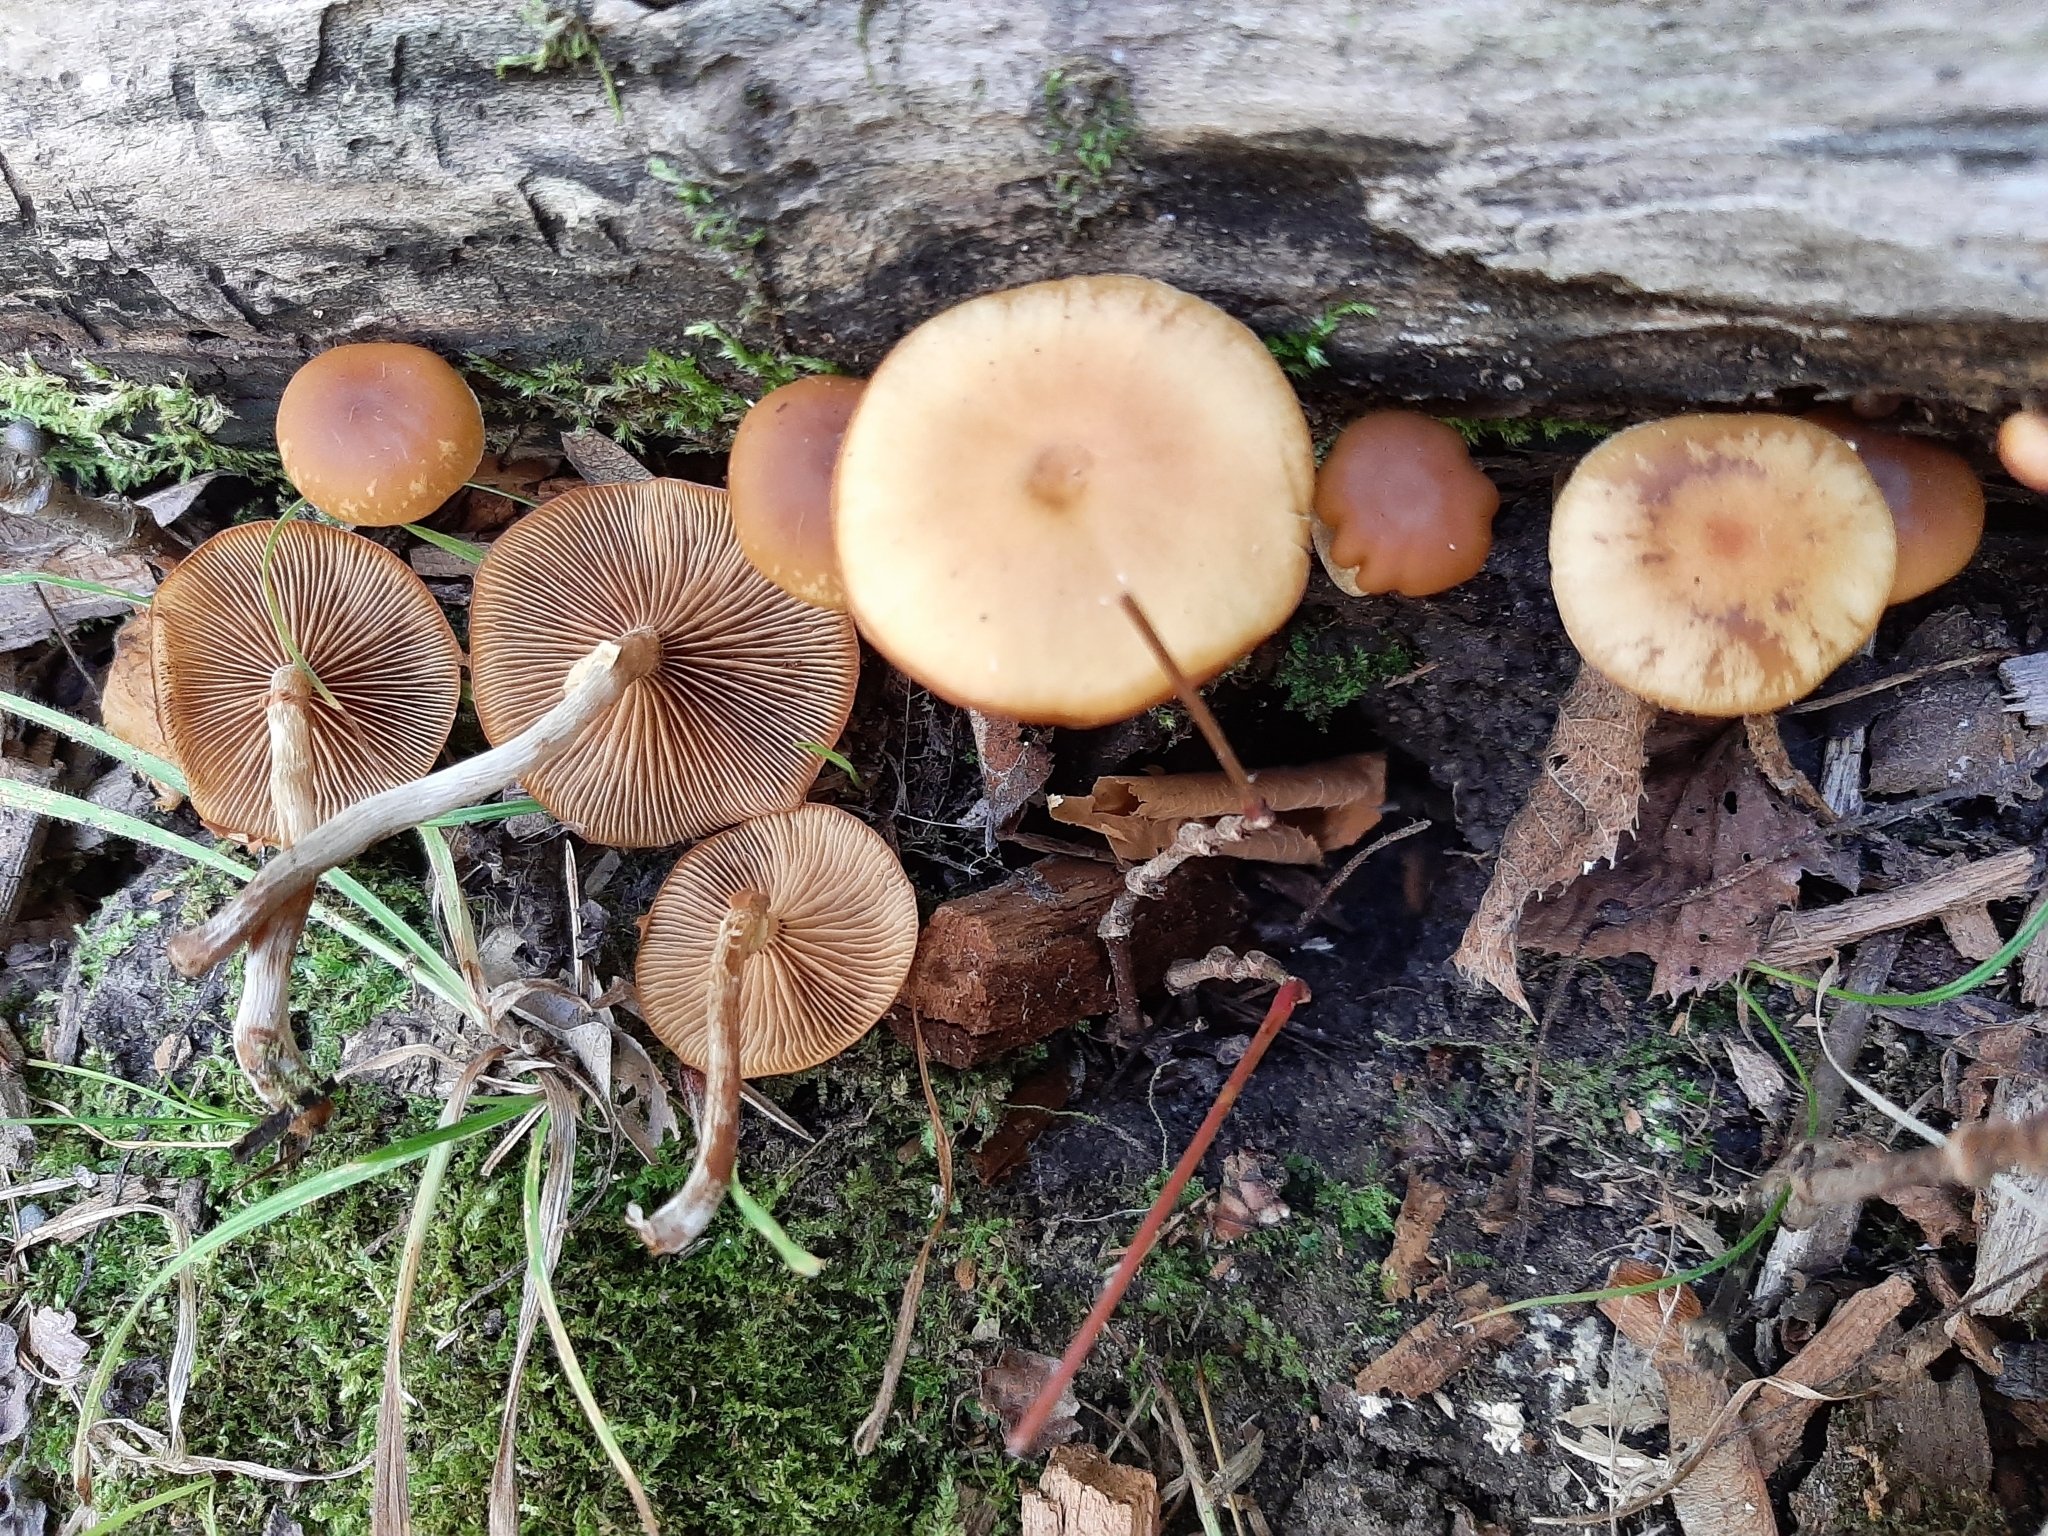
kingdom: Fungi
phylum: Basidiomycota
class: Agaricomycetes
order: Agaricales
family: Hymenogastraceae
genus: Galerina
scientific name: Galerina marginata
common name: Funeral bell
